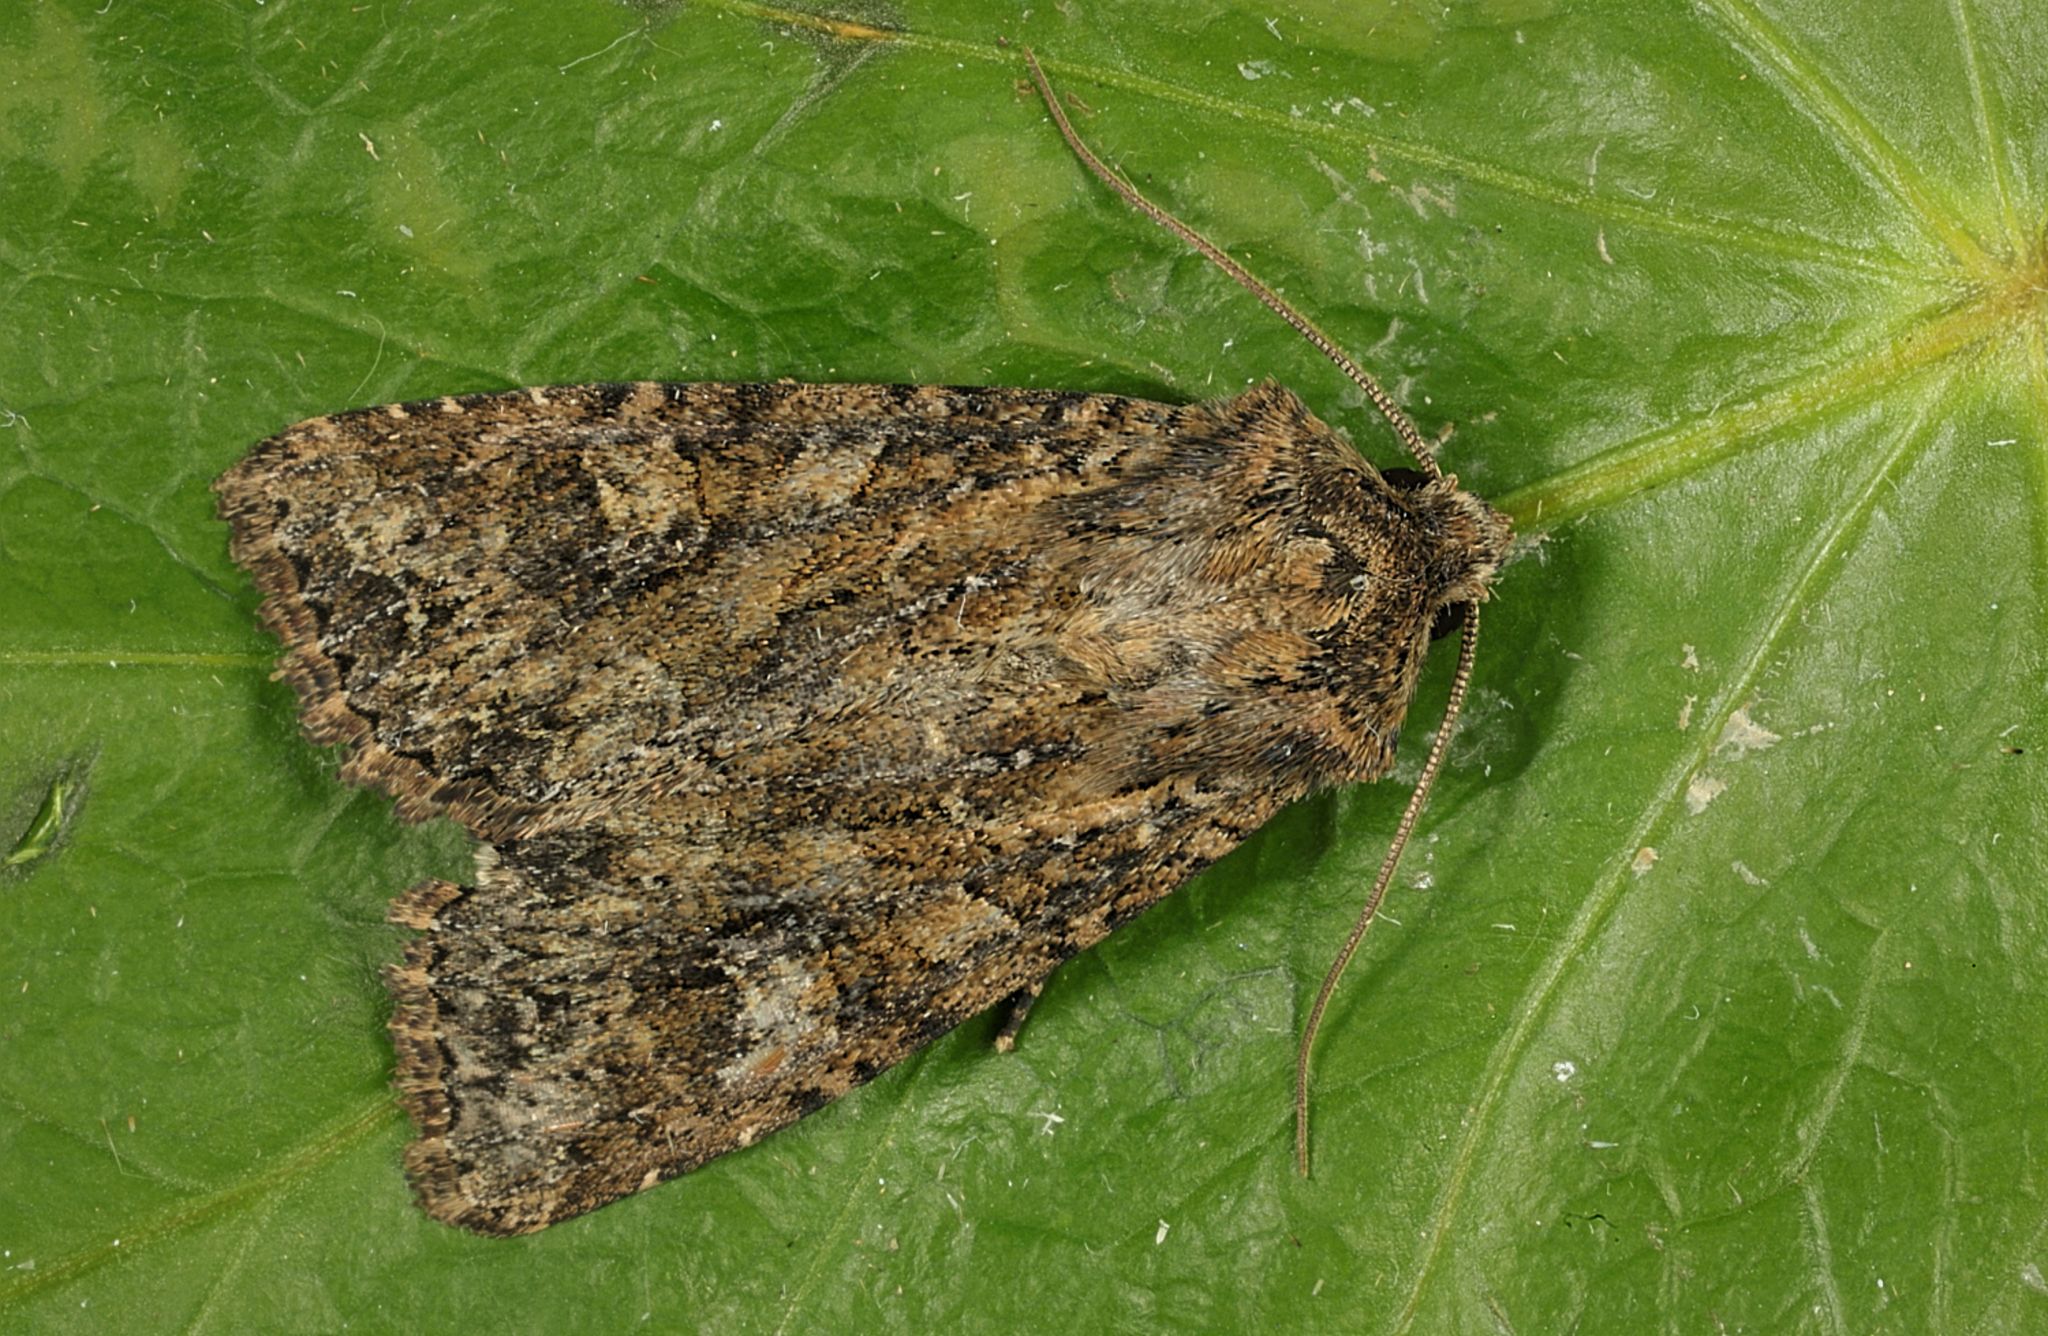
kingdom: Animalia
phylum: Arthropoda
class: Insecta
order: Lepidoptera
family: Noctuidae
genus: Apamea
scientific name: Apamea remissa
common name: Dusky brocade
